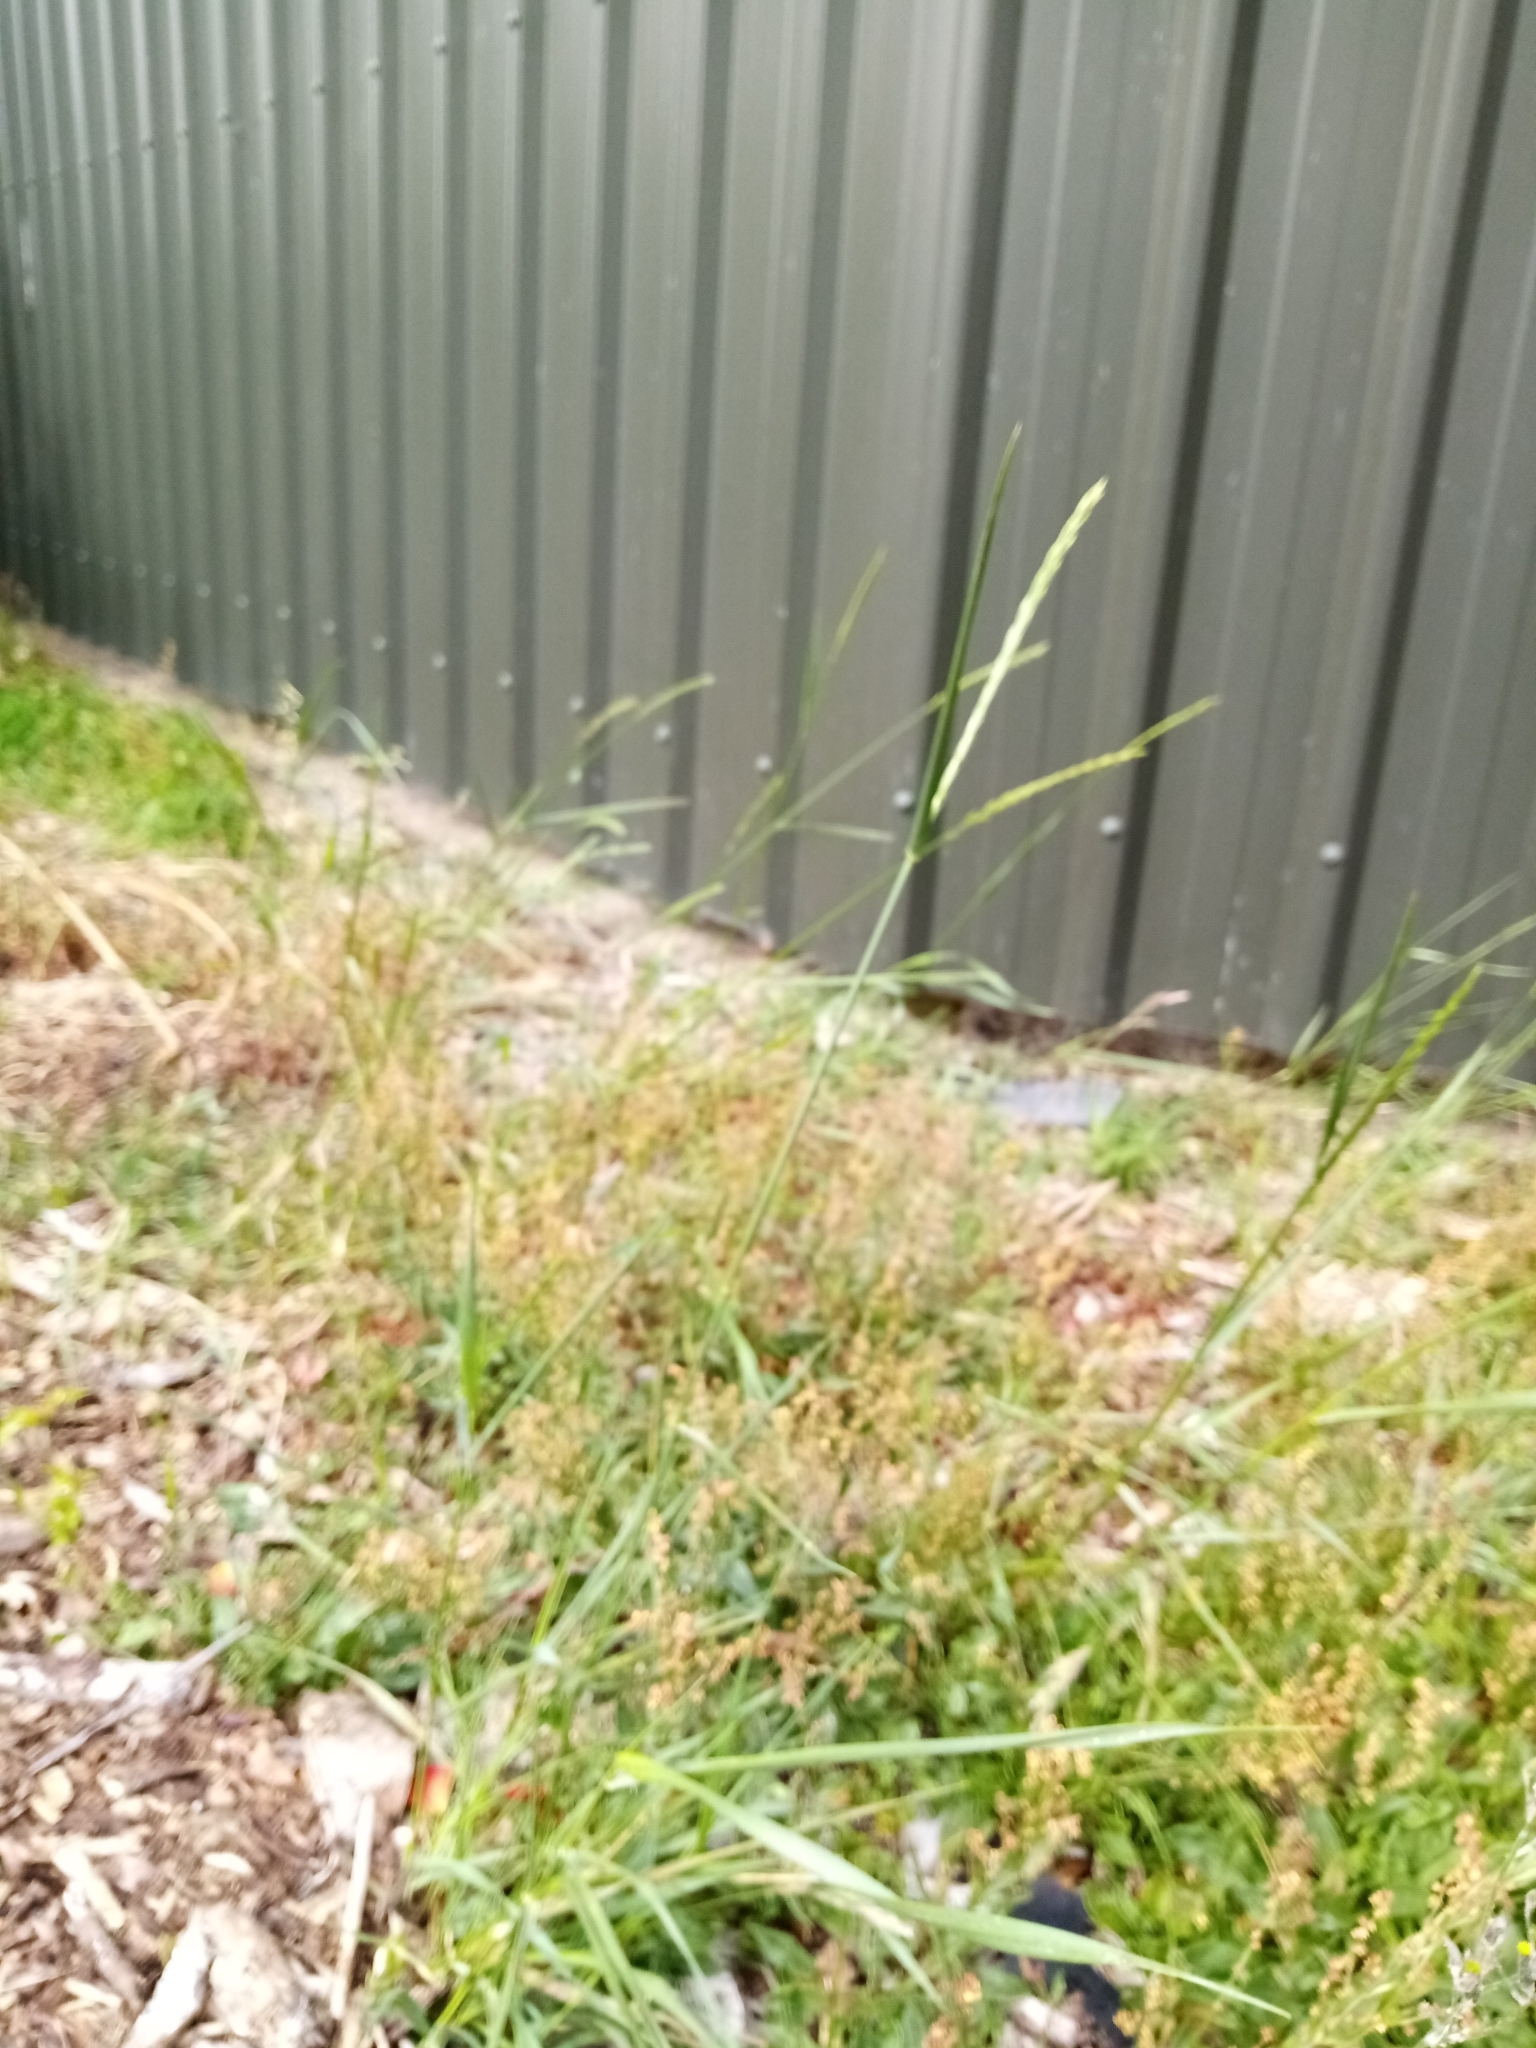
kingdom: Plantae
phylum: Tracheophyta
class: Liliopsida
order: Poales
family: Poaceae
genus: Elymus
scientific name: Elymus repens
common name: Quackgrass
